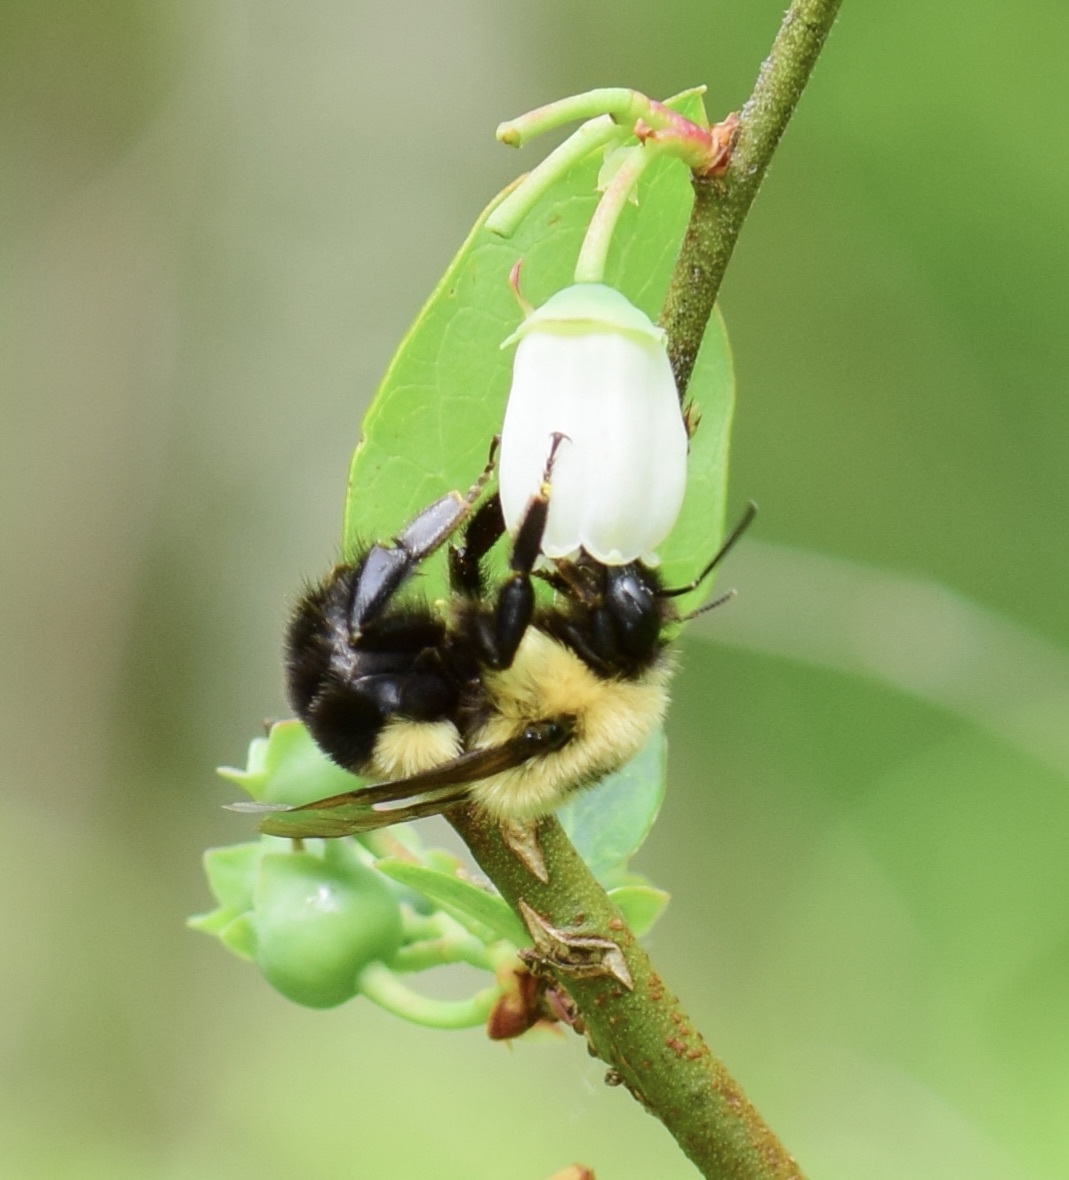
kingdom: Animalia
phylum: Arthropoda
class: Insecta
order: Hymenoptera
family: Apidae
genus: Bombus
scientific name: Bombus bimaculatus
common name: Two-spotted bumble bee
